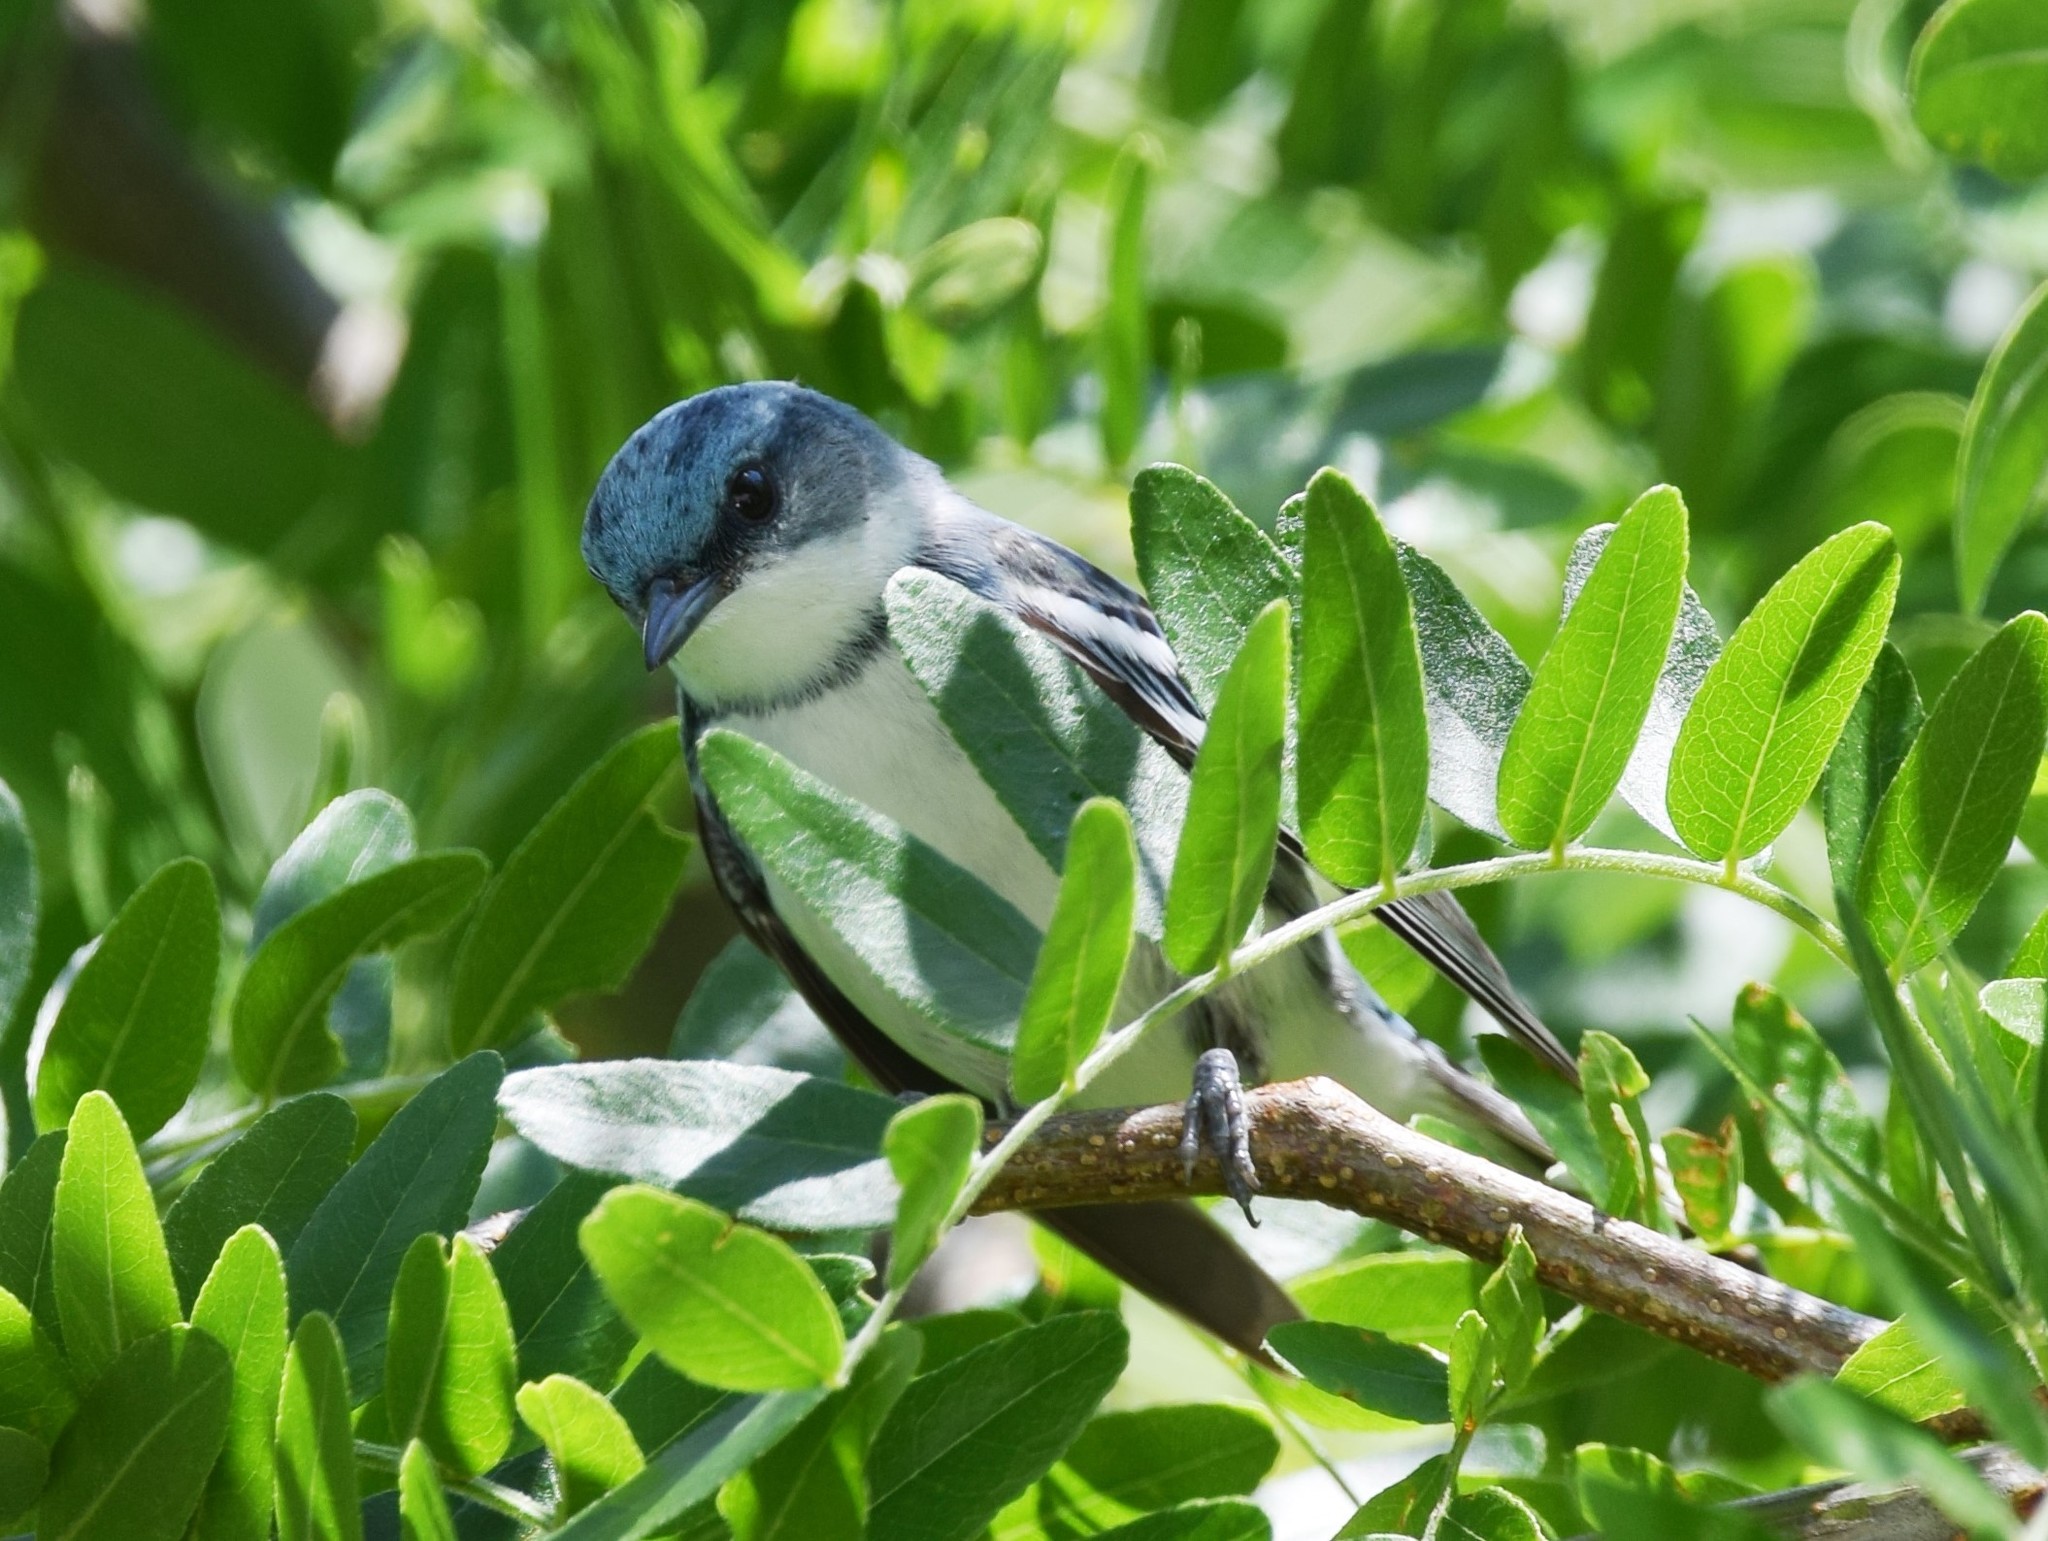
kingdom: Animalia
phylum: Chordata
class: Aves
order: Passeriformes
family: Parulidae
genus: Setophaga
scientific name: Setophaga cerulea
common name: Cerulean warbler
